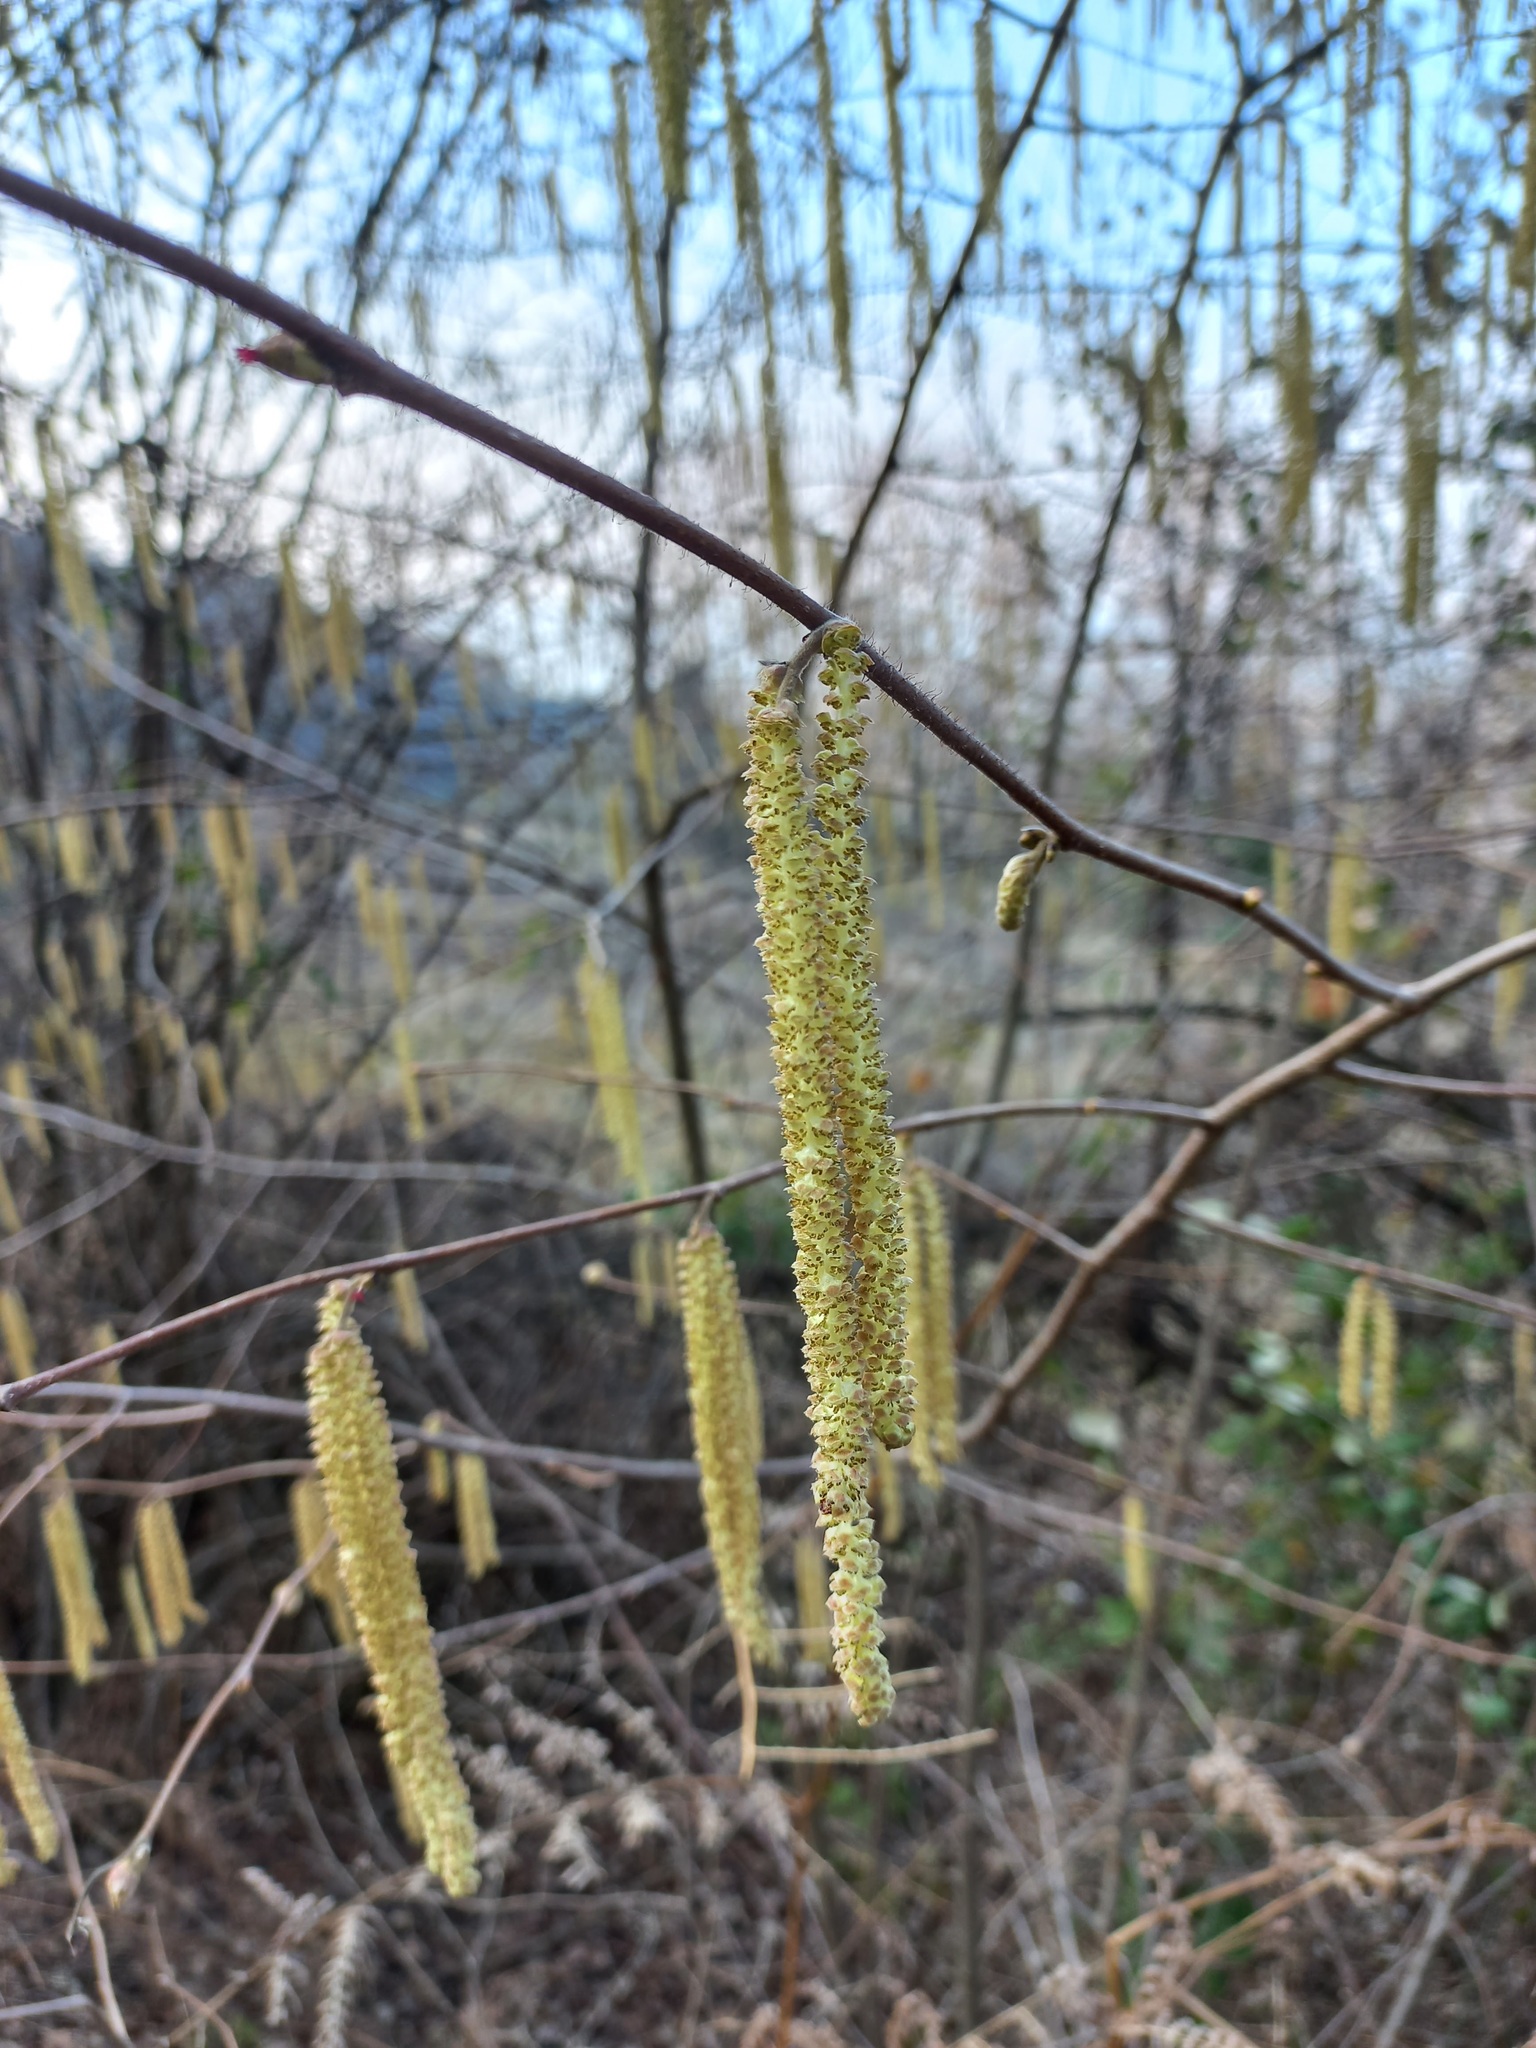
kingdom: Plantae
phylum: Tracheophyta
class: Magnoliopsida
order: Fagales
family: Betulaceae
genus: Corylus
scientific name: Corylus avellana
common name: European hazel
